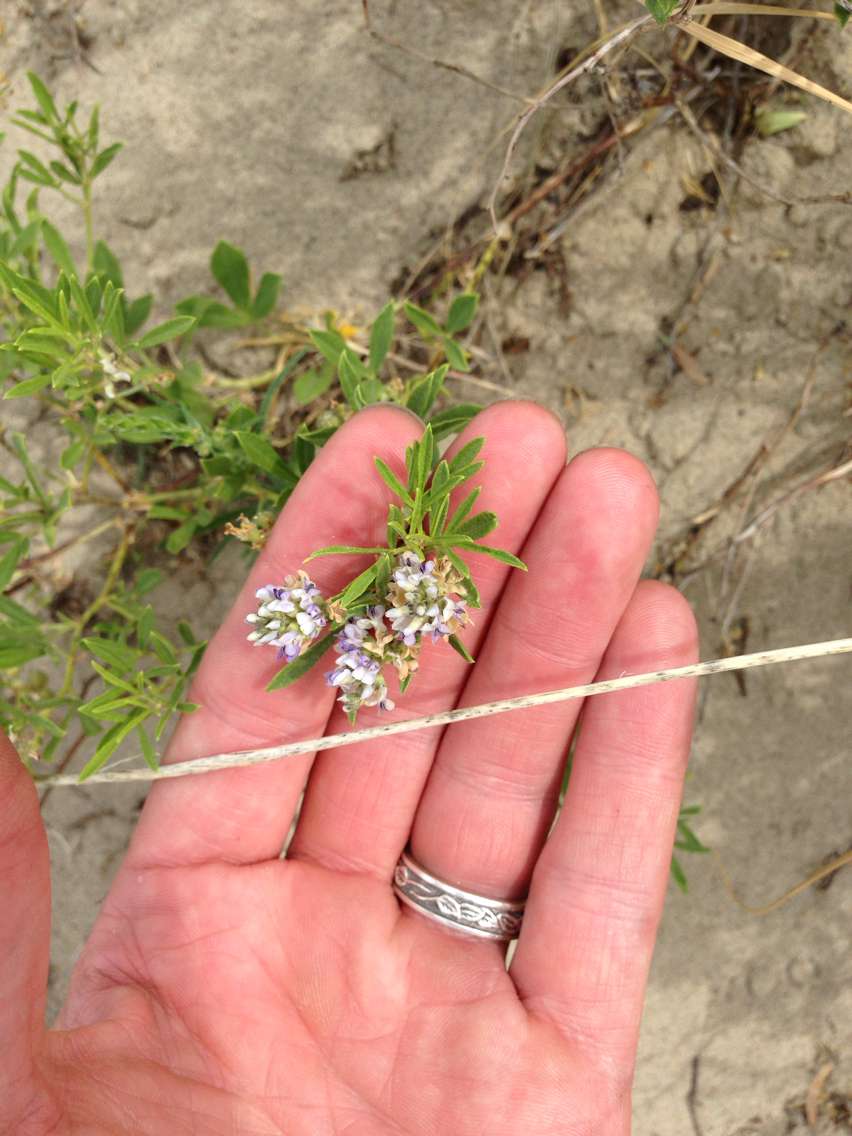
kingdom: Plantae
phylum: Tracheophyta
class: Magnoliopsida
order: Fabales
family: Fabaceae
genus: Ladeania
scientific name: Ladeania lanceolata
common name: Dune scurf-pea
